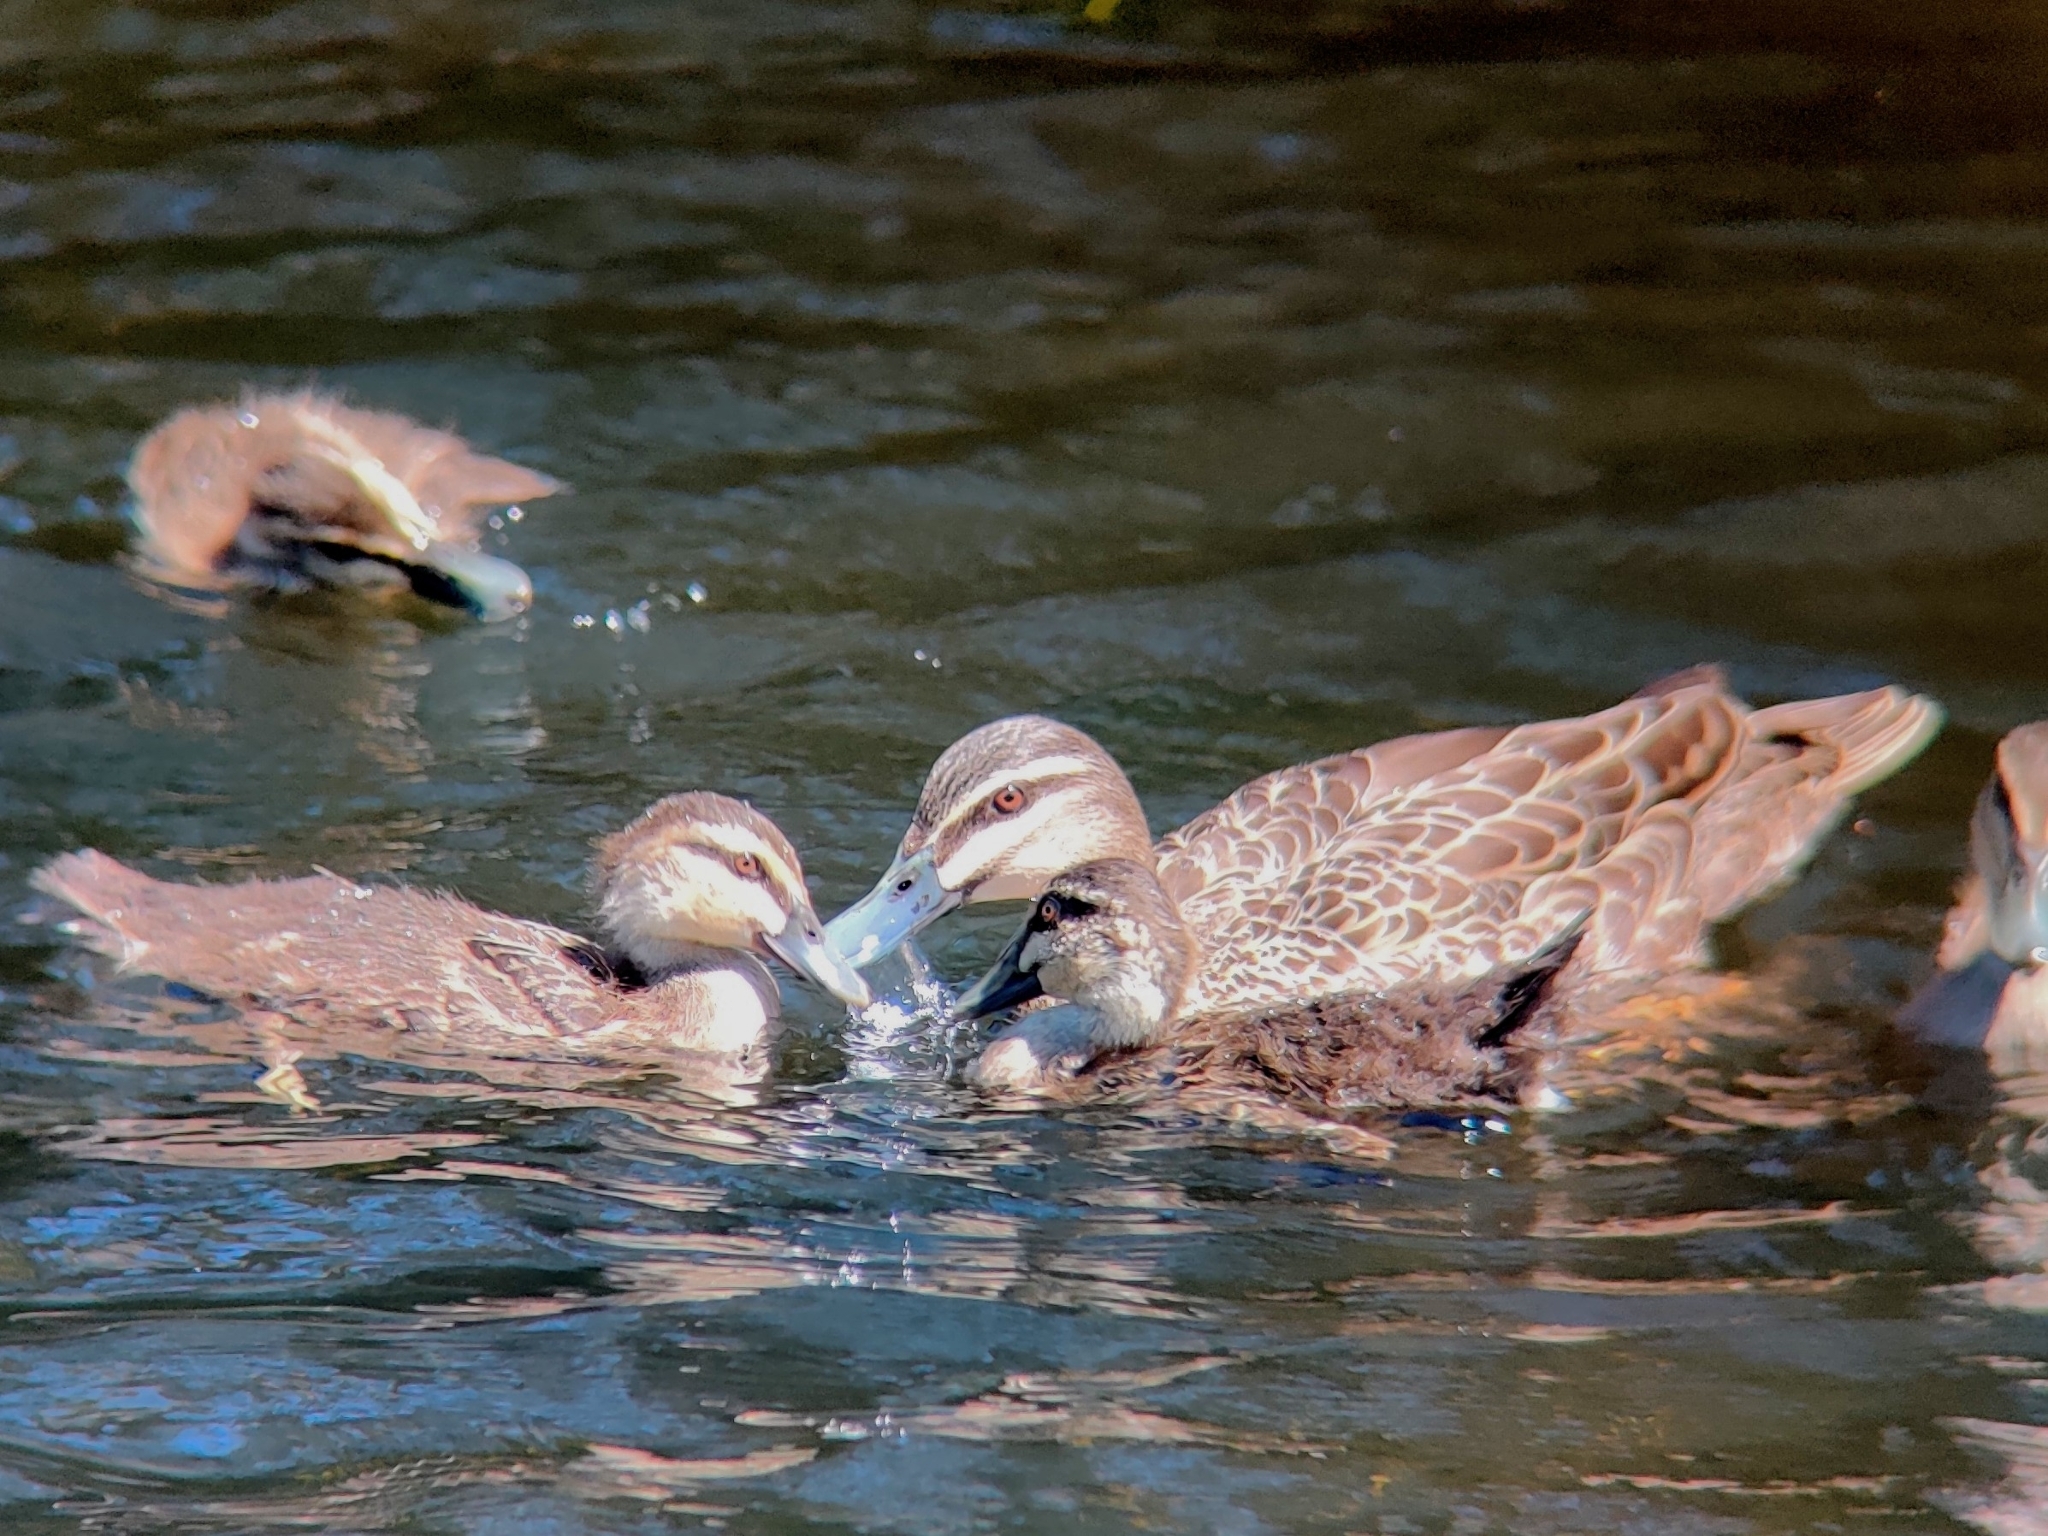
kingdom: Animalia
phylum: Chordata
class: Aves
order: Anseriformes
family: Anatidae
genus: Anas
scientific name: Anas
